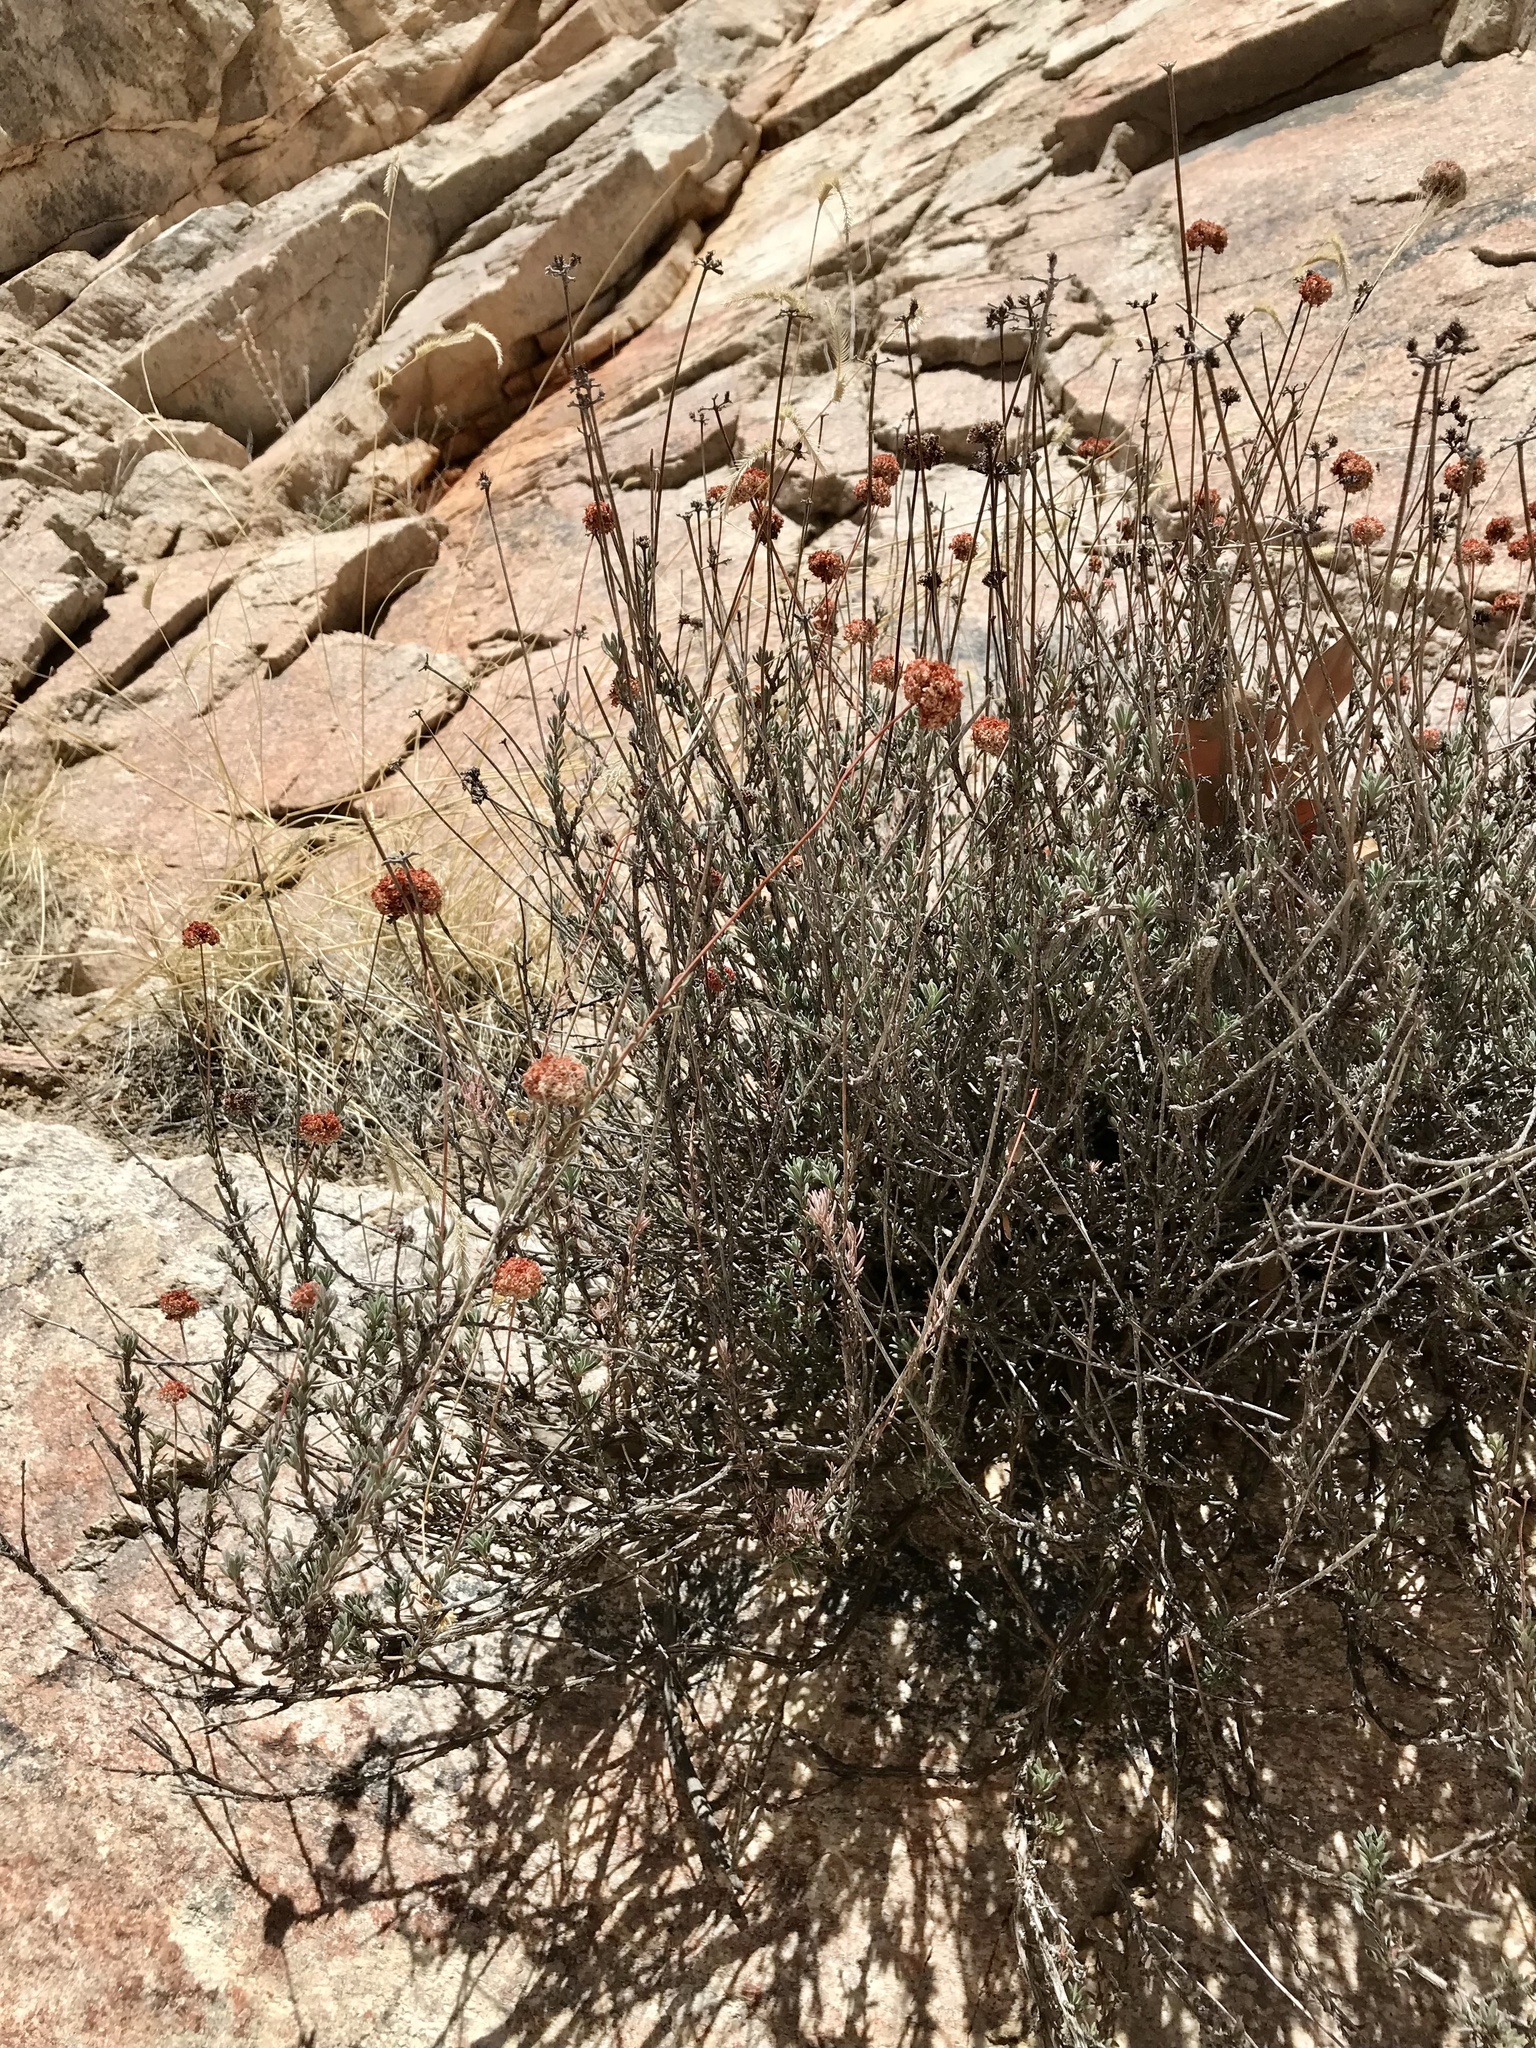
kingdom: Plantae
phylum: Tracheophyta
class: Magnoliopsida
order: Caryophyllales
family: Polygonaceae
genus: Eriogonum
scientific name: Eriogonum fasciculatum
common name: California wild buckwheat
